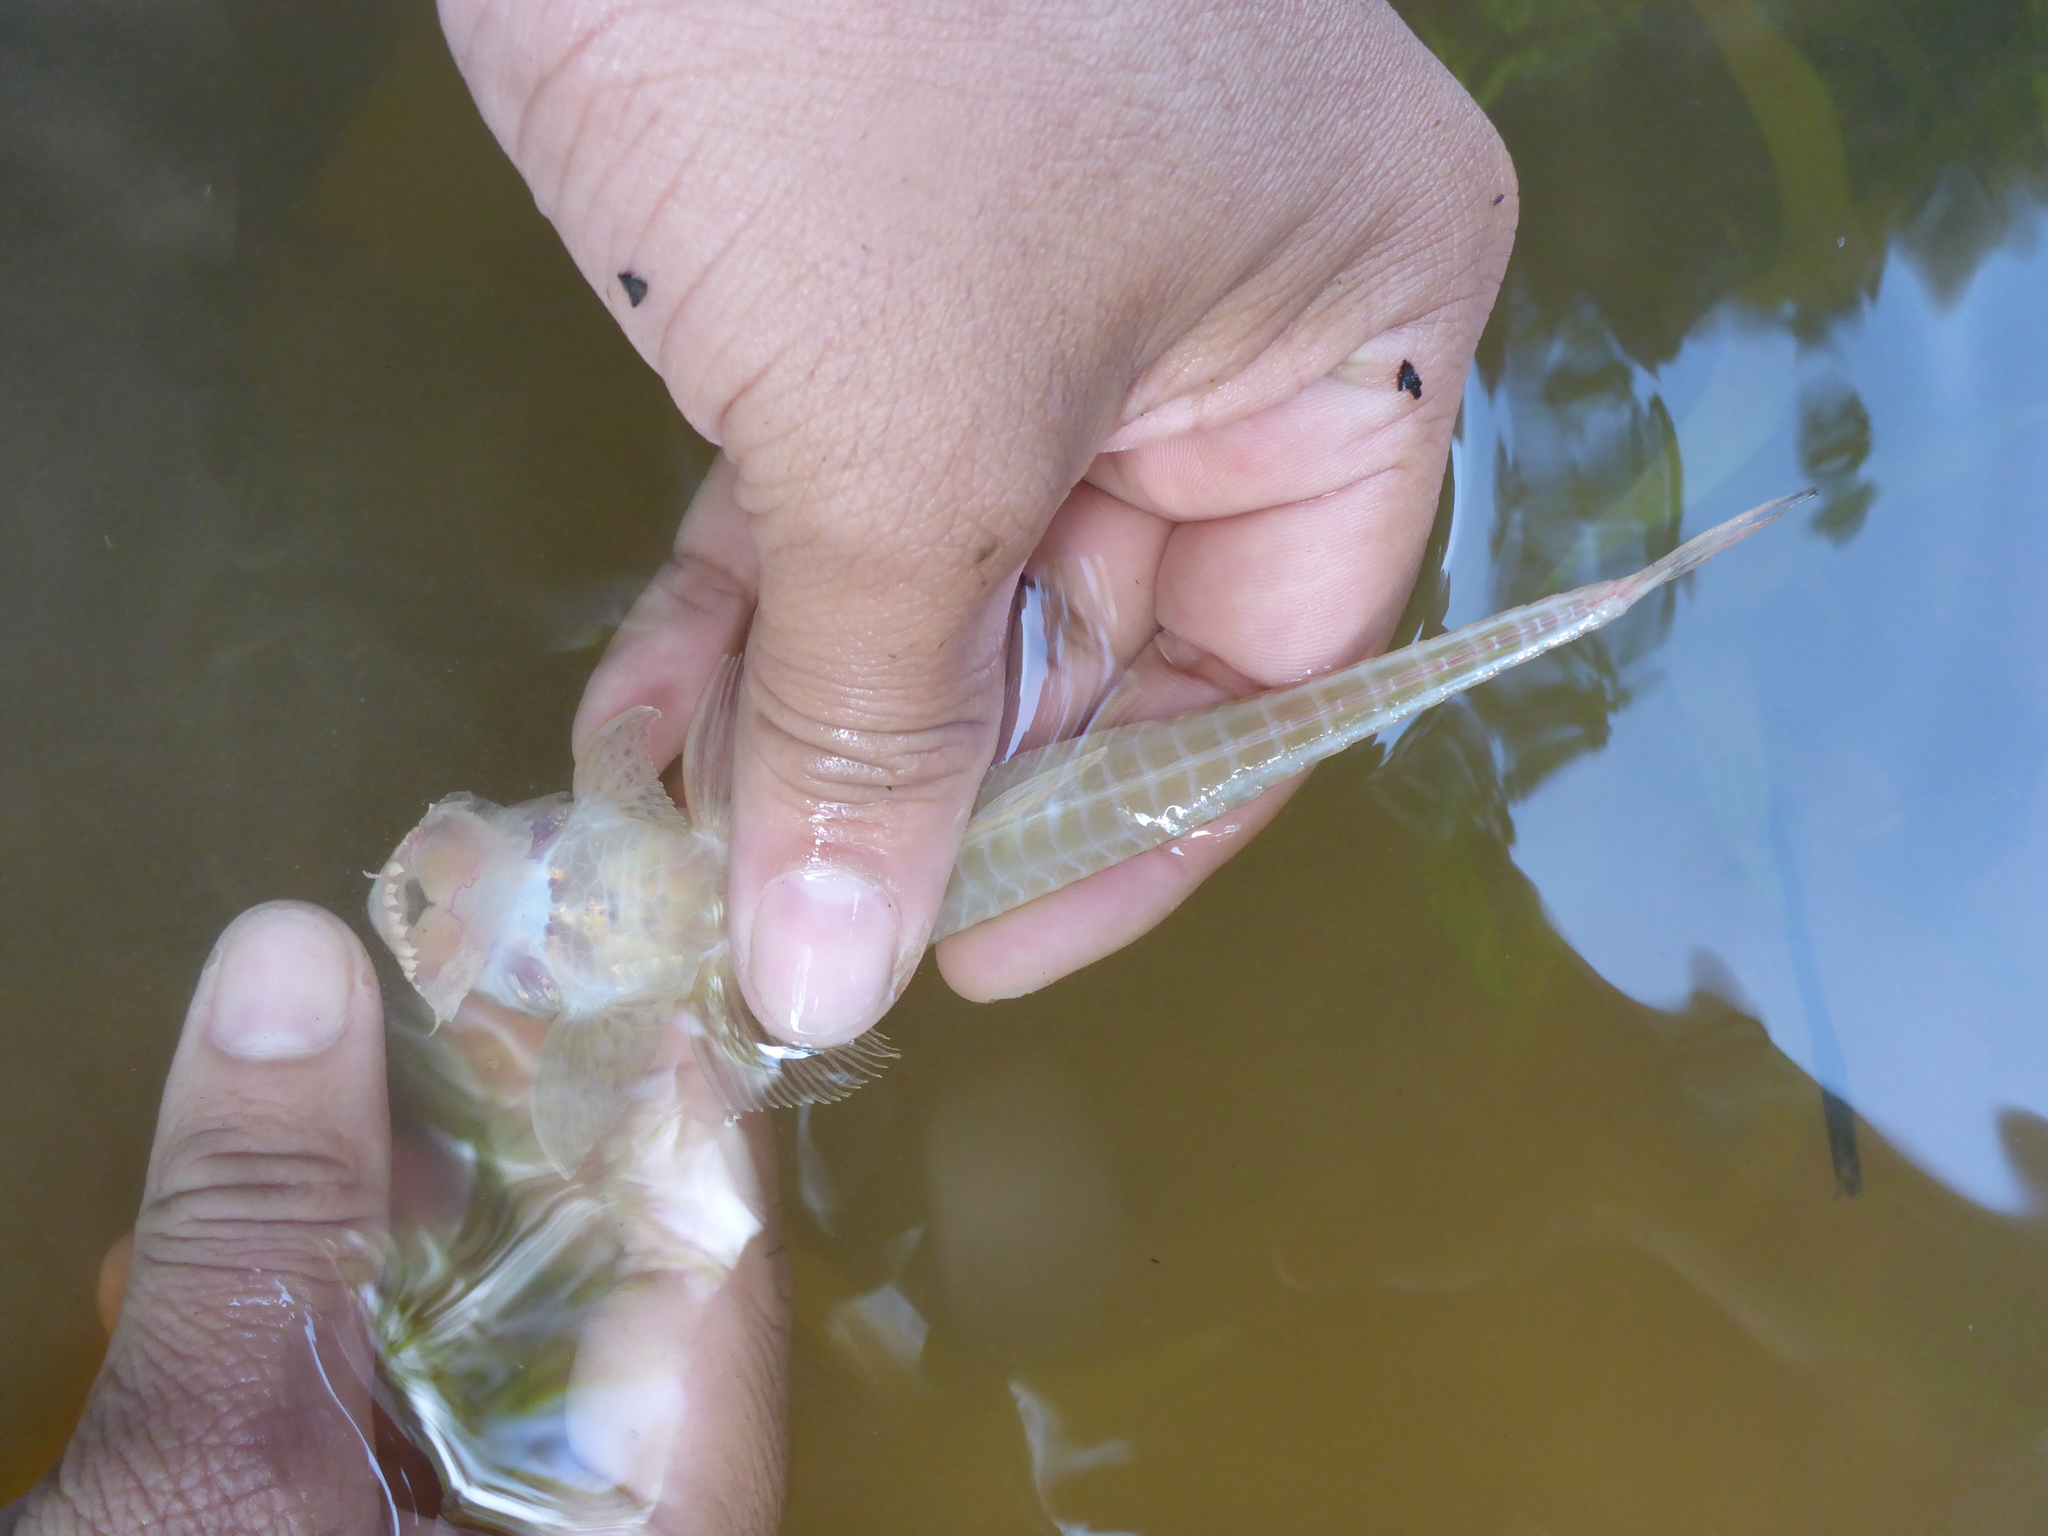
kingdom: Animalia
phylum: Chordata
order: Siluriformes
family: Loricariidae
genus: Limatulichthys
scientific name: Limatulichthys griseus
